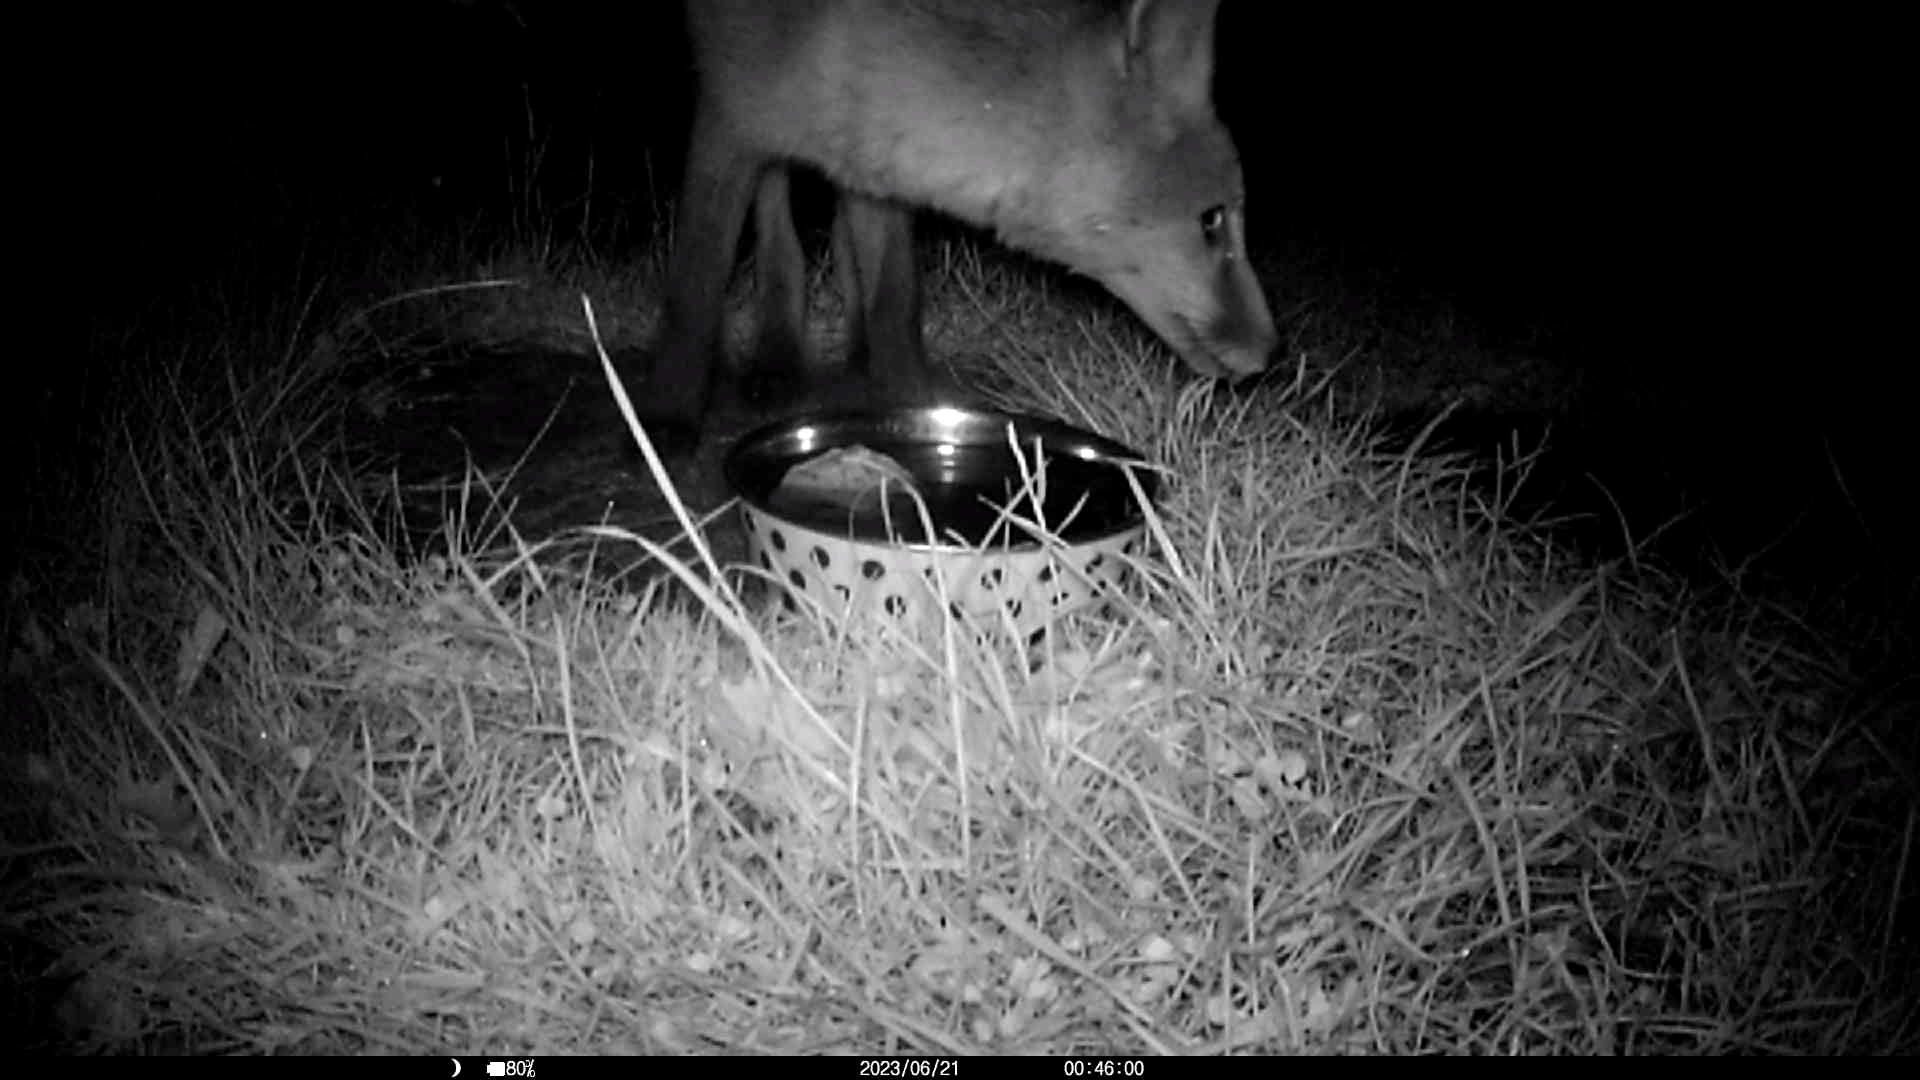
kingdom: Animalia
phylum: Chordata
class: Mammalia
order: Carnivora
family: Canidae
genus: Vulpes
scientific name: Vulpes vulpes
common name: Red fox
